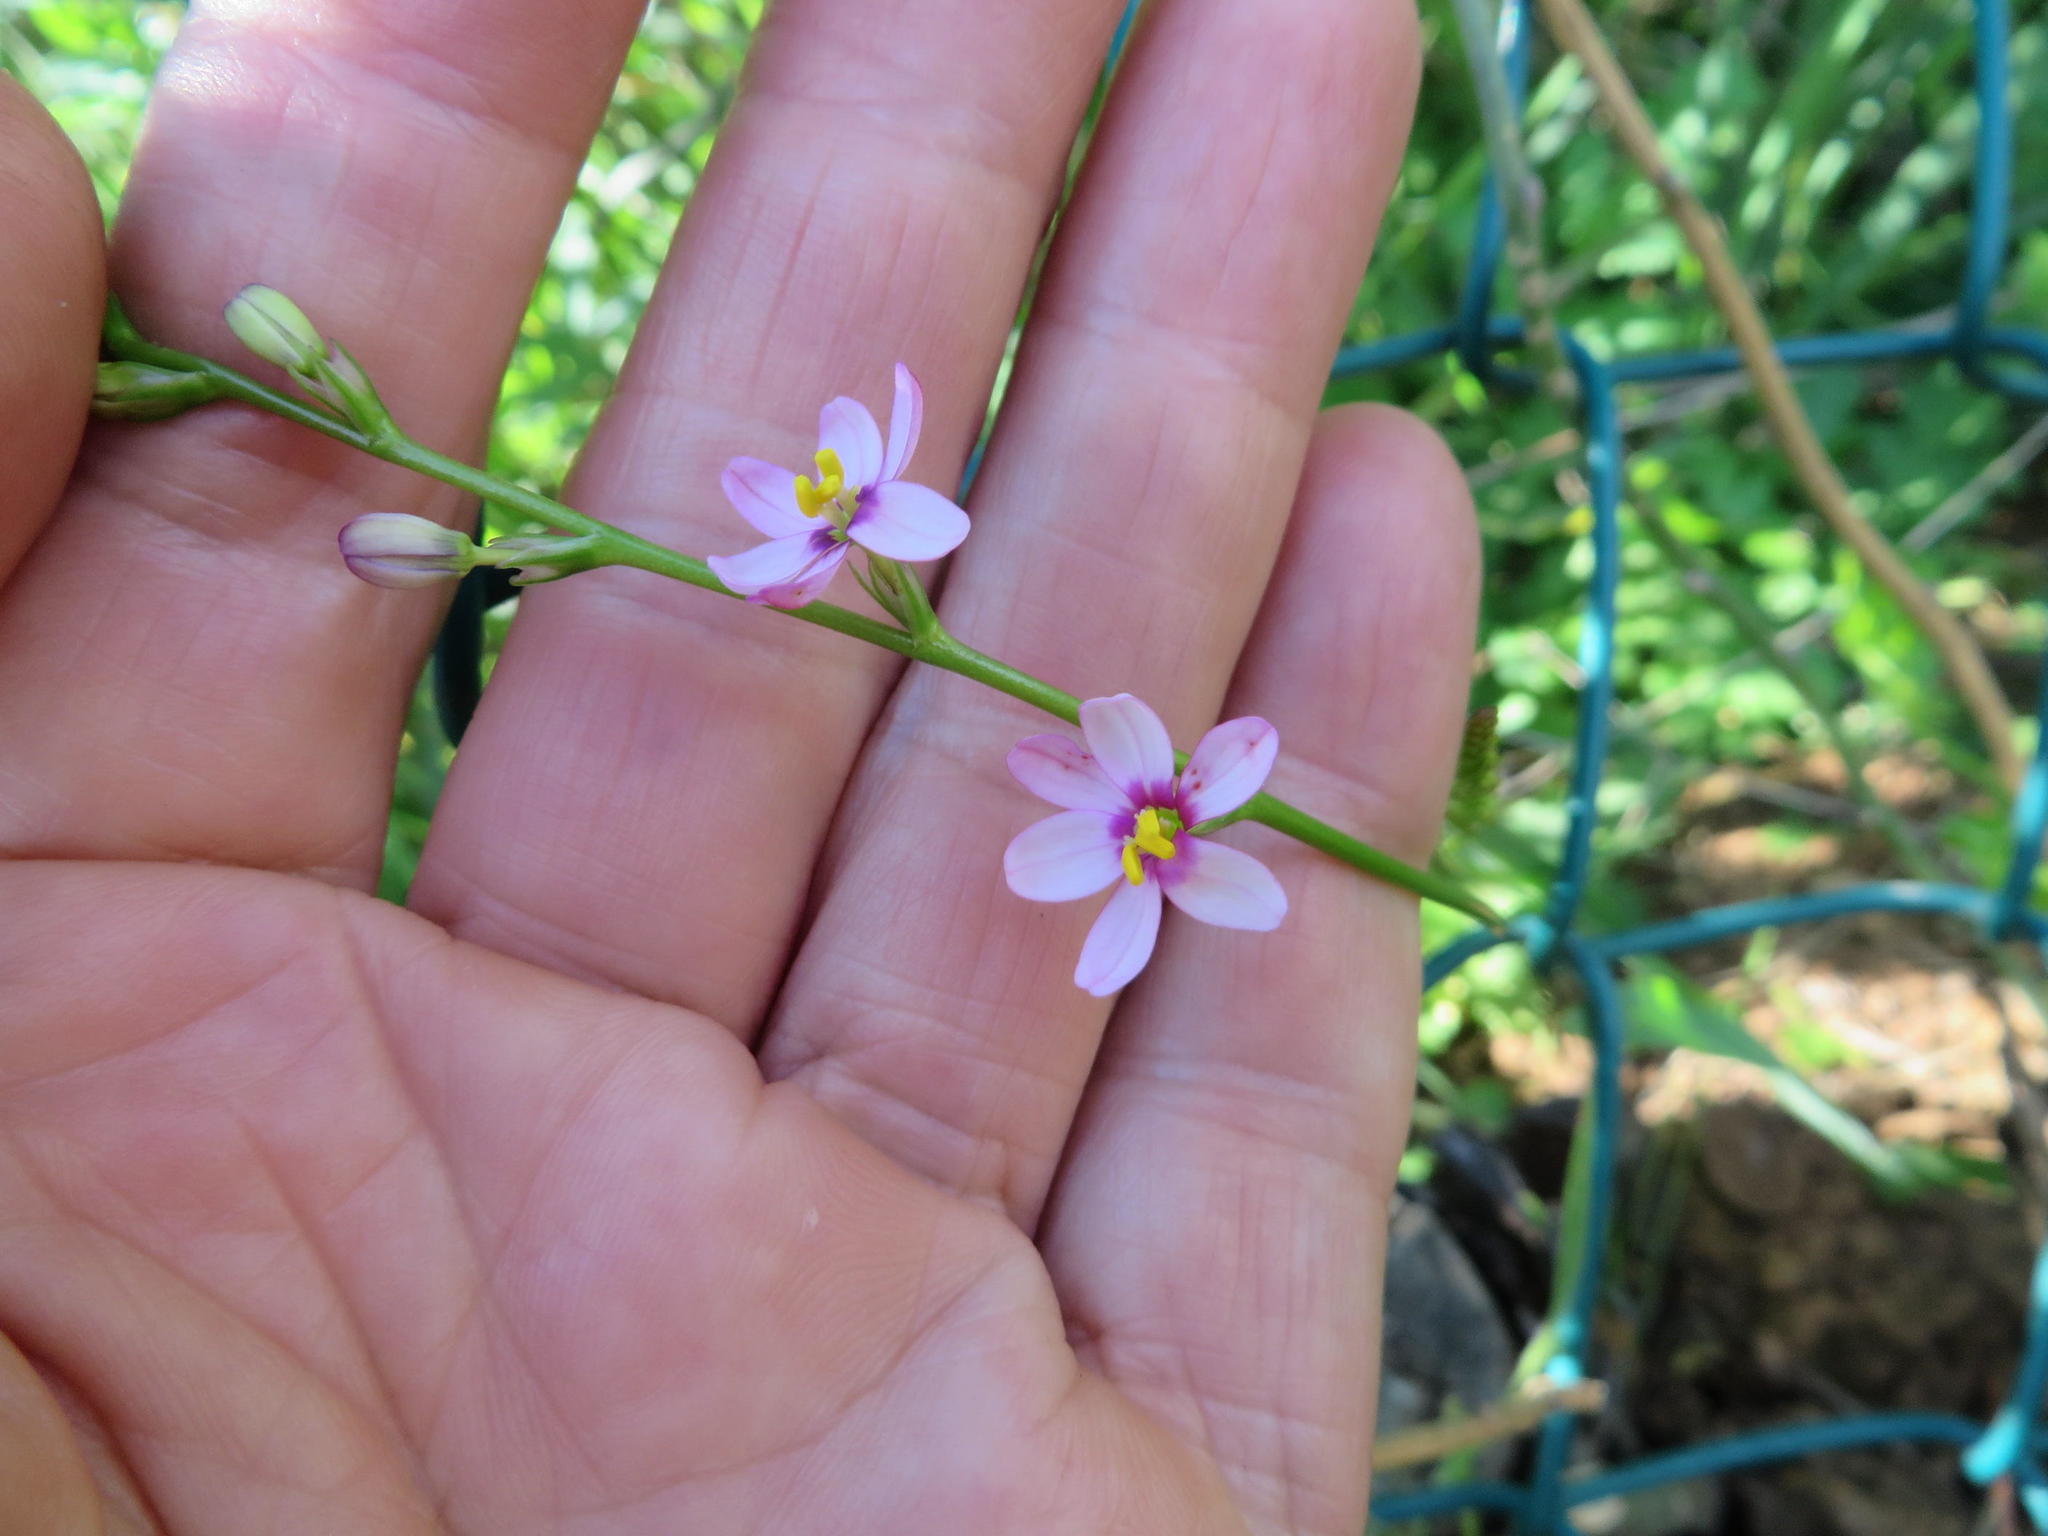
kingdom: Plantae
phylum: Tracheophyta
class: Liliopsida
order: Asparagales
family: Iridaceae
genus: Ixia
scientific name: Ixia scillaris
